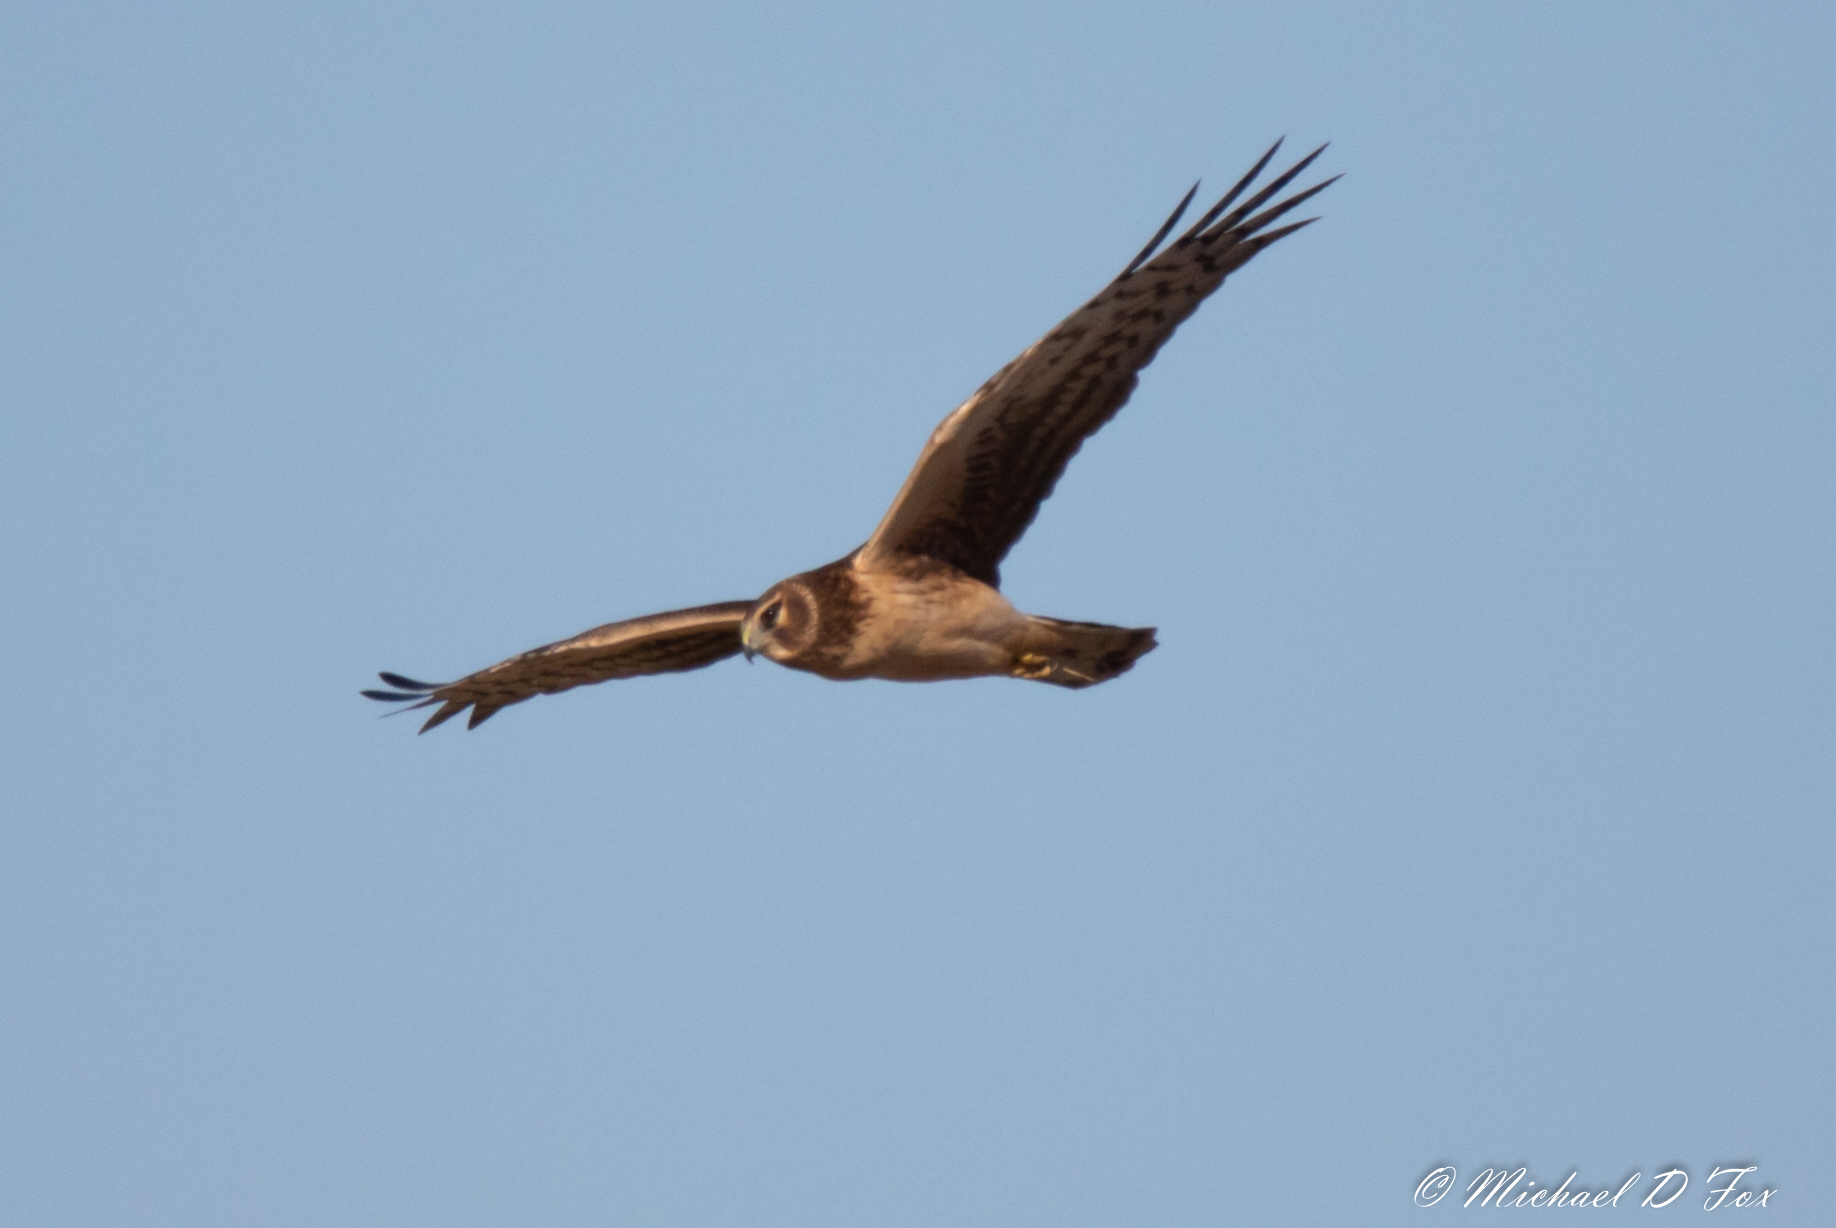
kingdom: Animalia
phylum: Chordata
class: Aves
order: Accipitriformes
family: Accipitridae
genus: Circus
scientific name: Circus cyaneus
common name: Hen harrier
